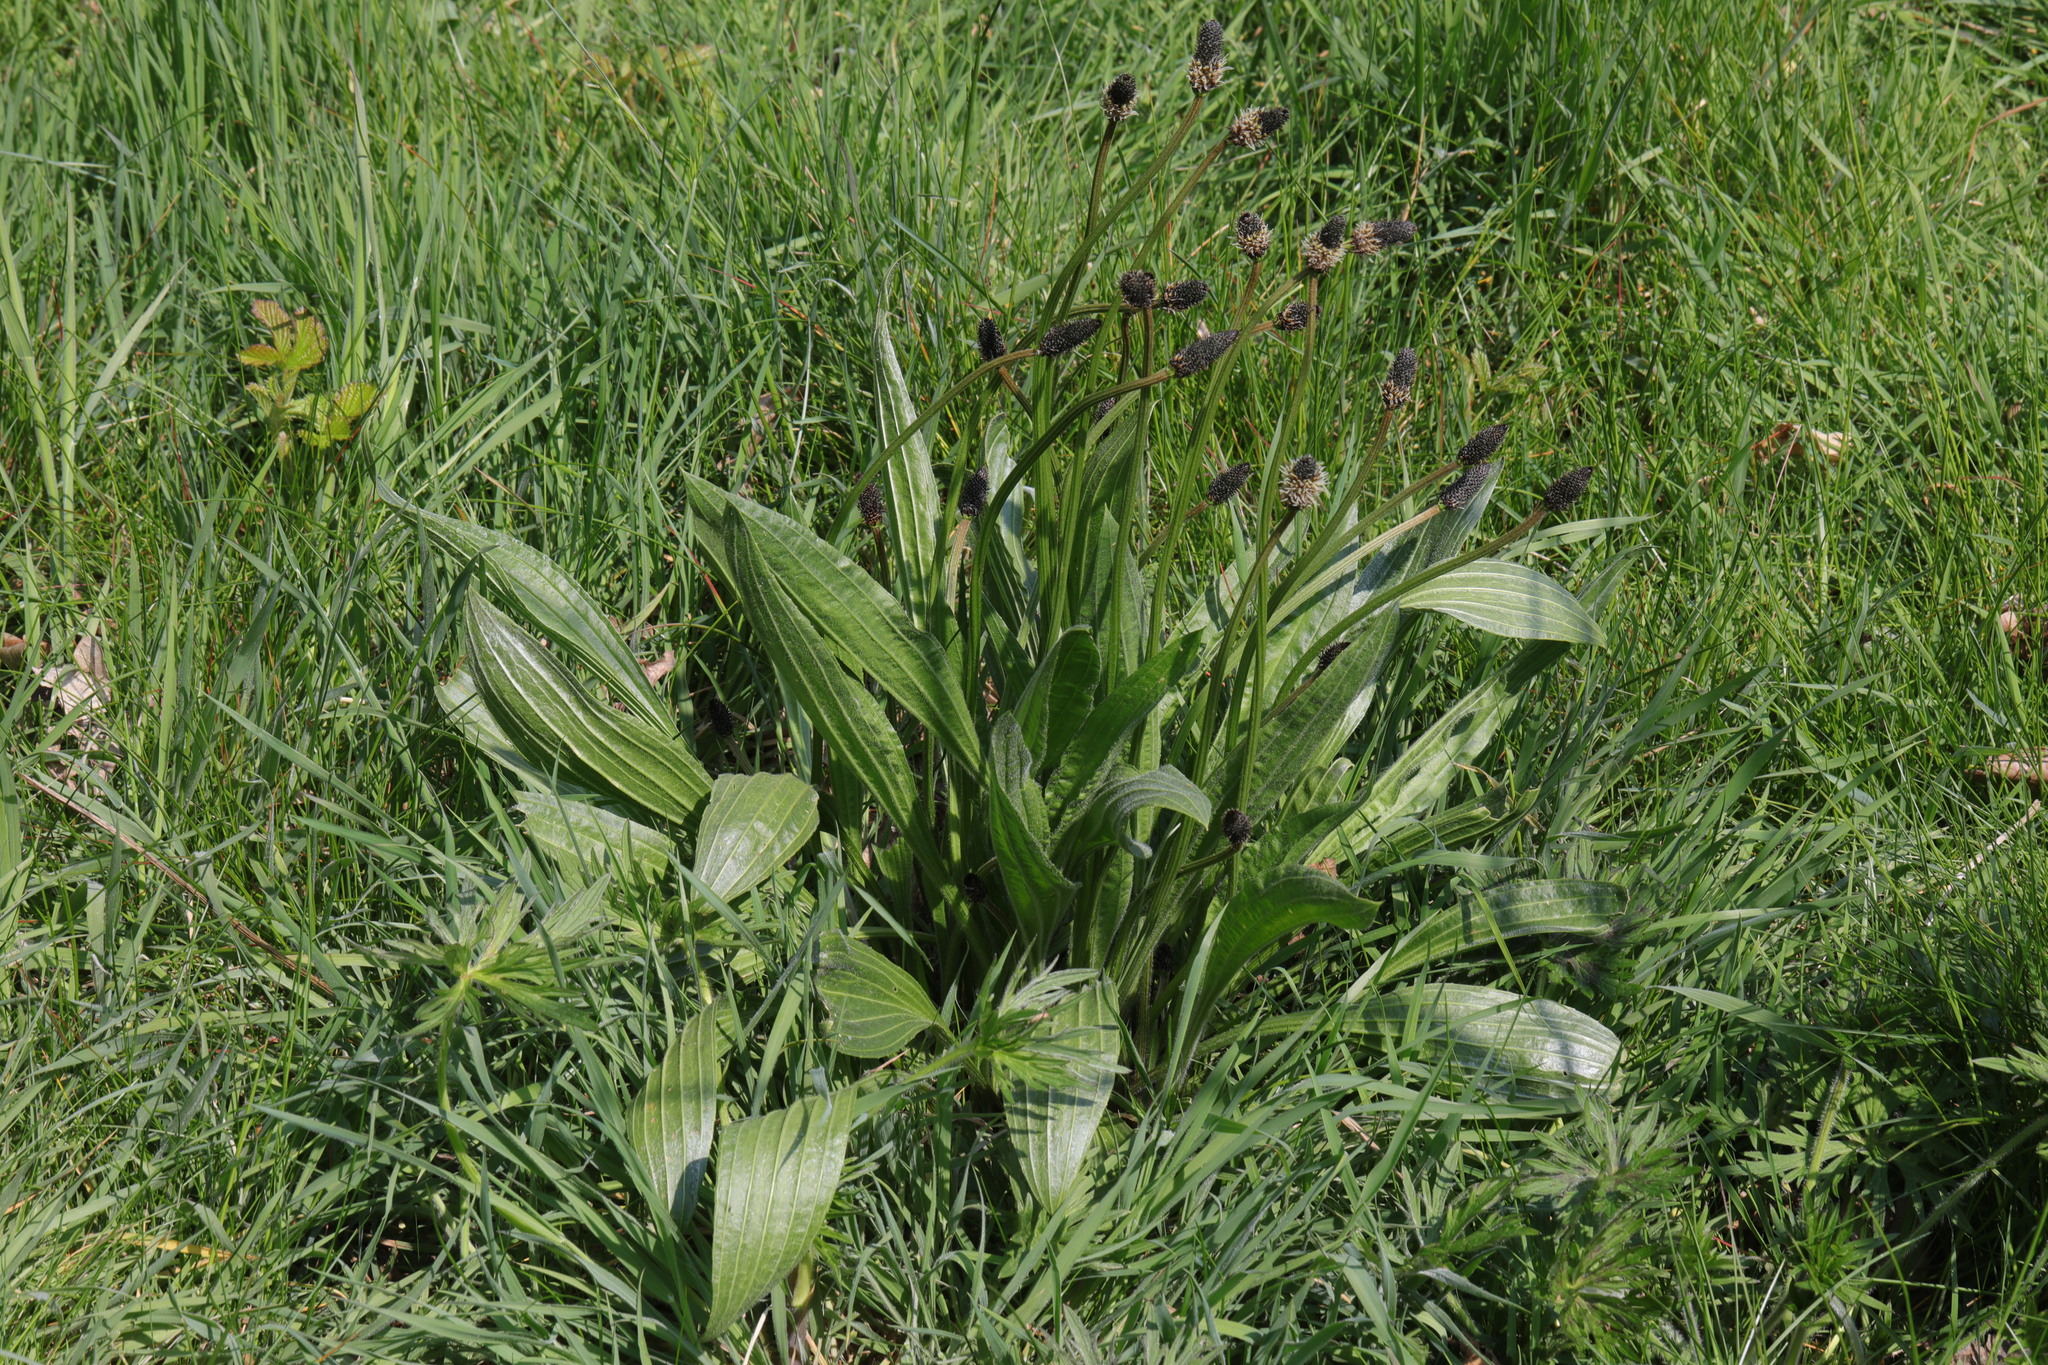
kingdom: Plantae
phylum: Tracheophyta
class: Magnoliopsida
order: Lamiales
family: Plantaginaceae
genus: Plantago
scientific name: Plantago lanceolata
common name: Ribwort plantain
